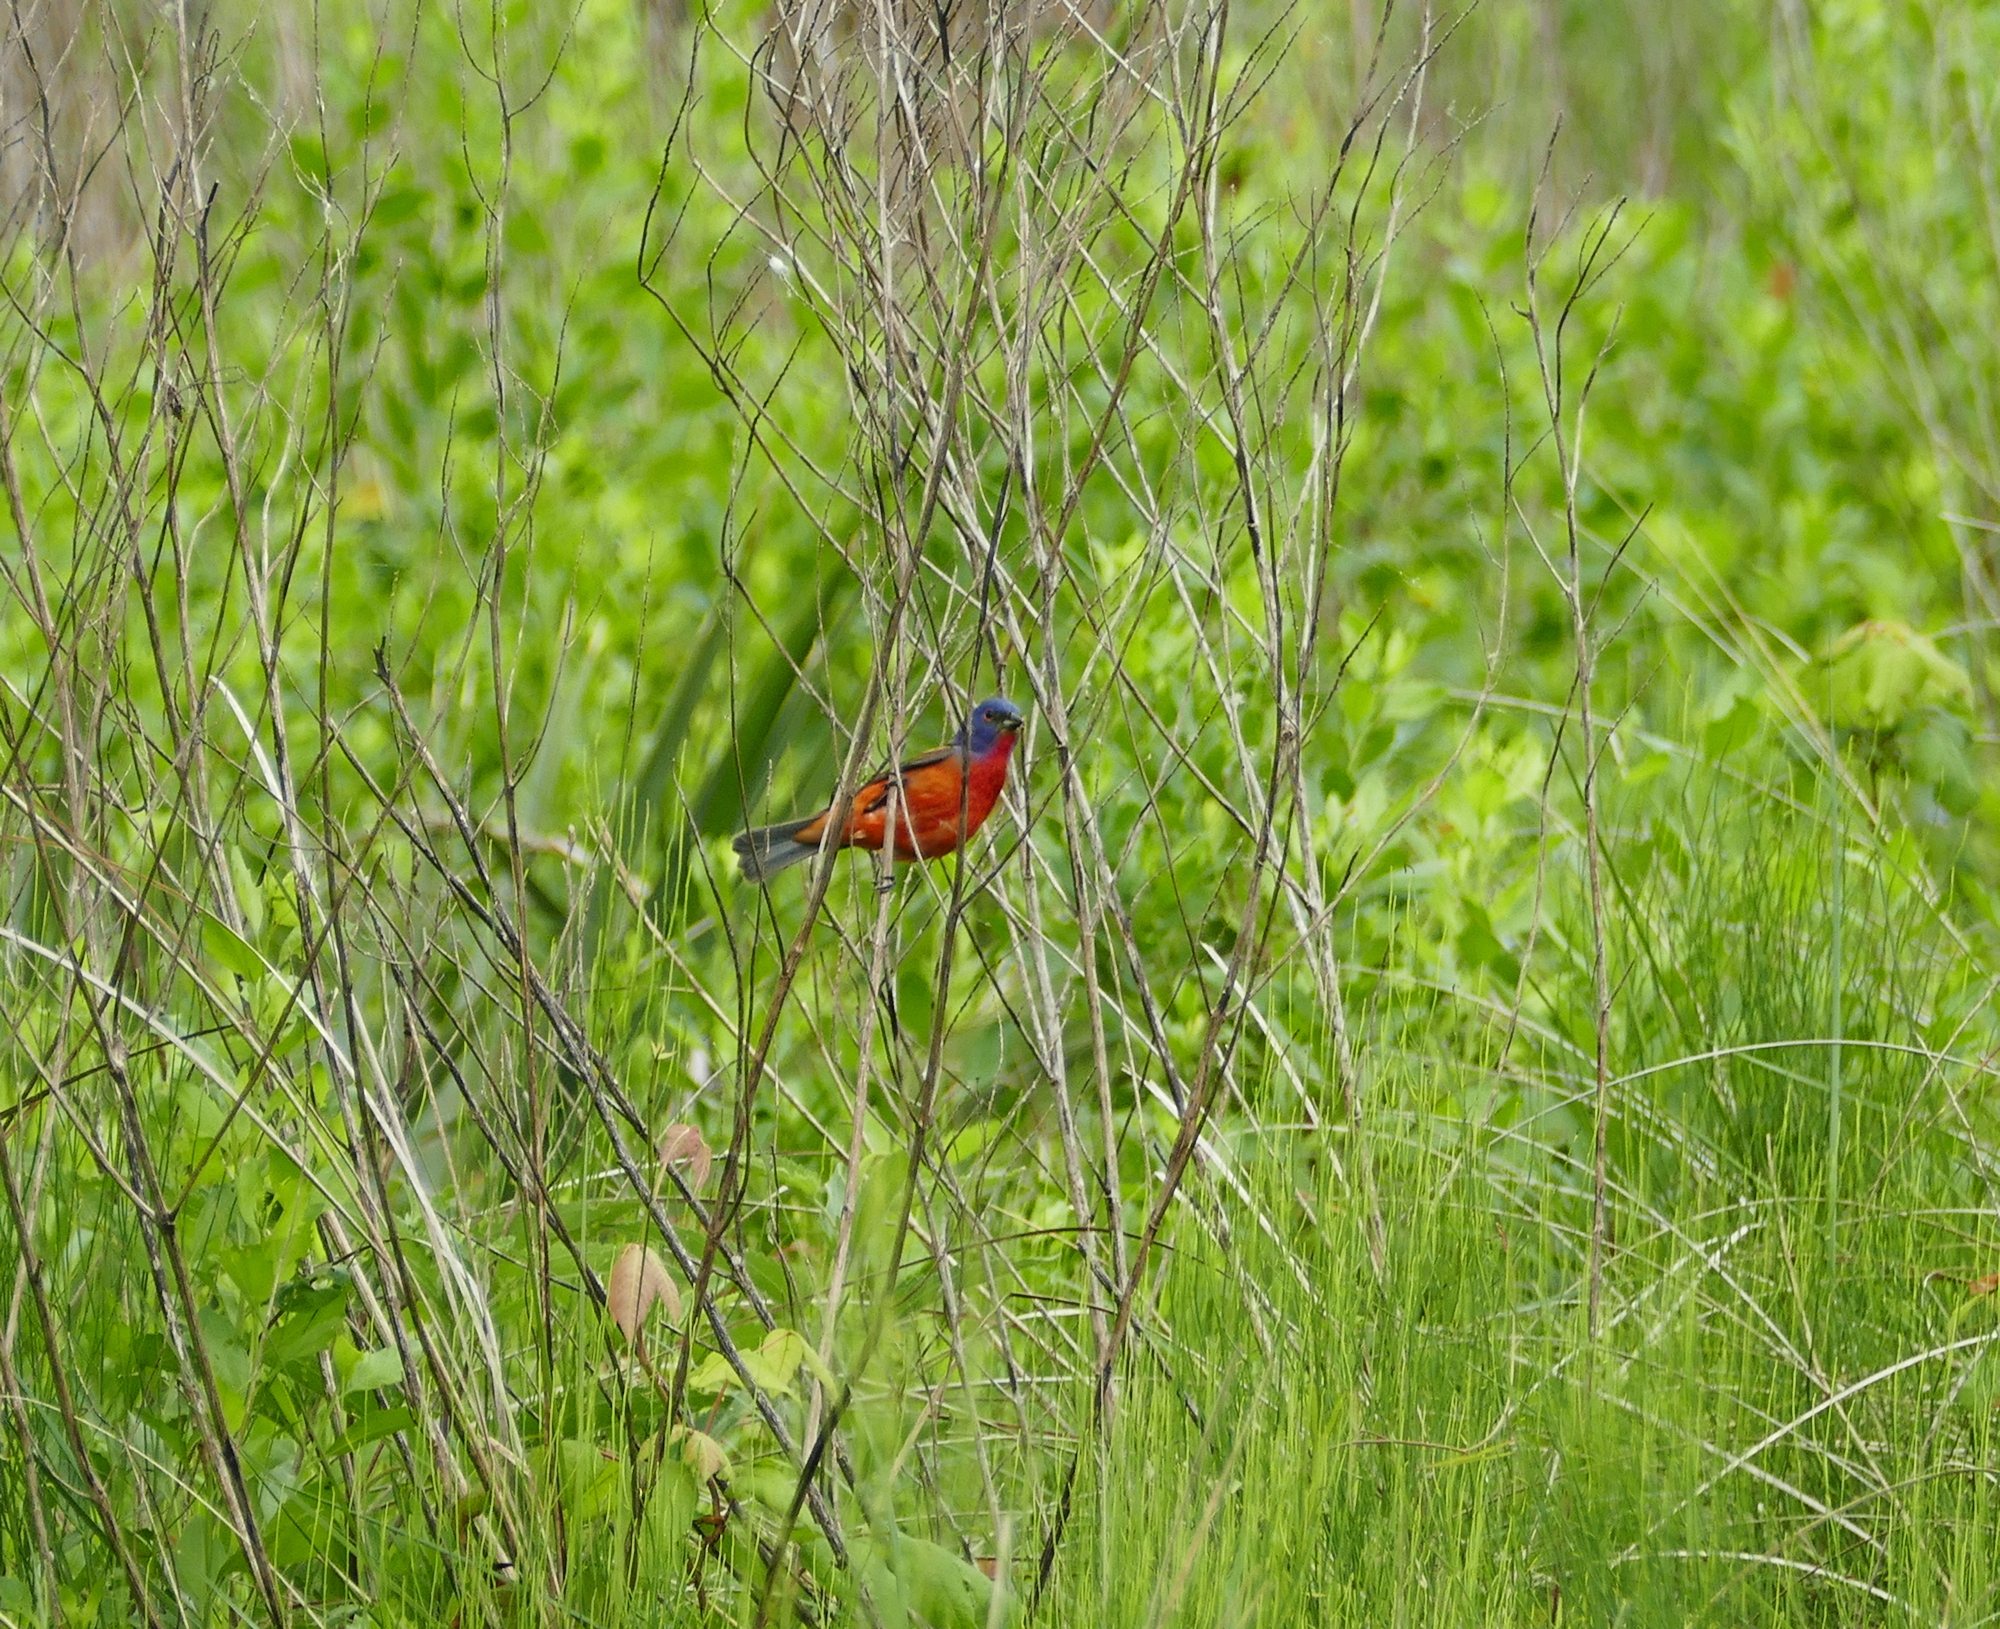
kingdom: Animalia
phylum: Chordata
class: Aves
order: Passeriformes
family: Cardinalidae
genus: Passerina
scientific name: Passerina ciris
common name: Painted bunting
